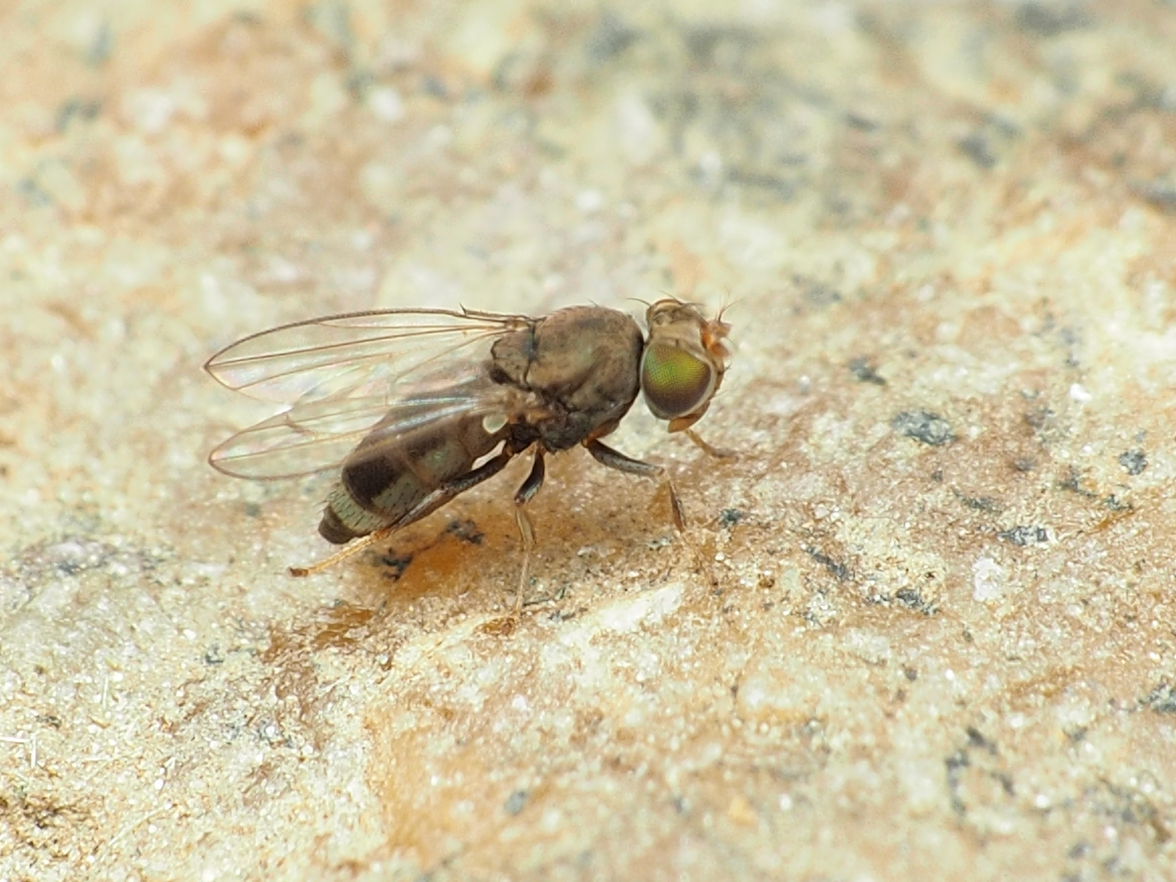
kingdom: Animalia
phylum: Arthropoda
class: Insecta
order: Diptera
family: Ephydridae
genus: Aquachasma
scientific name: Aquachasma leucoproctum
